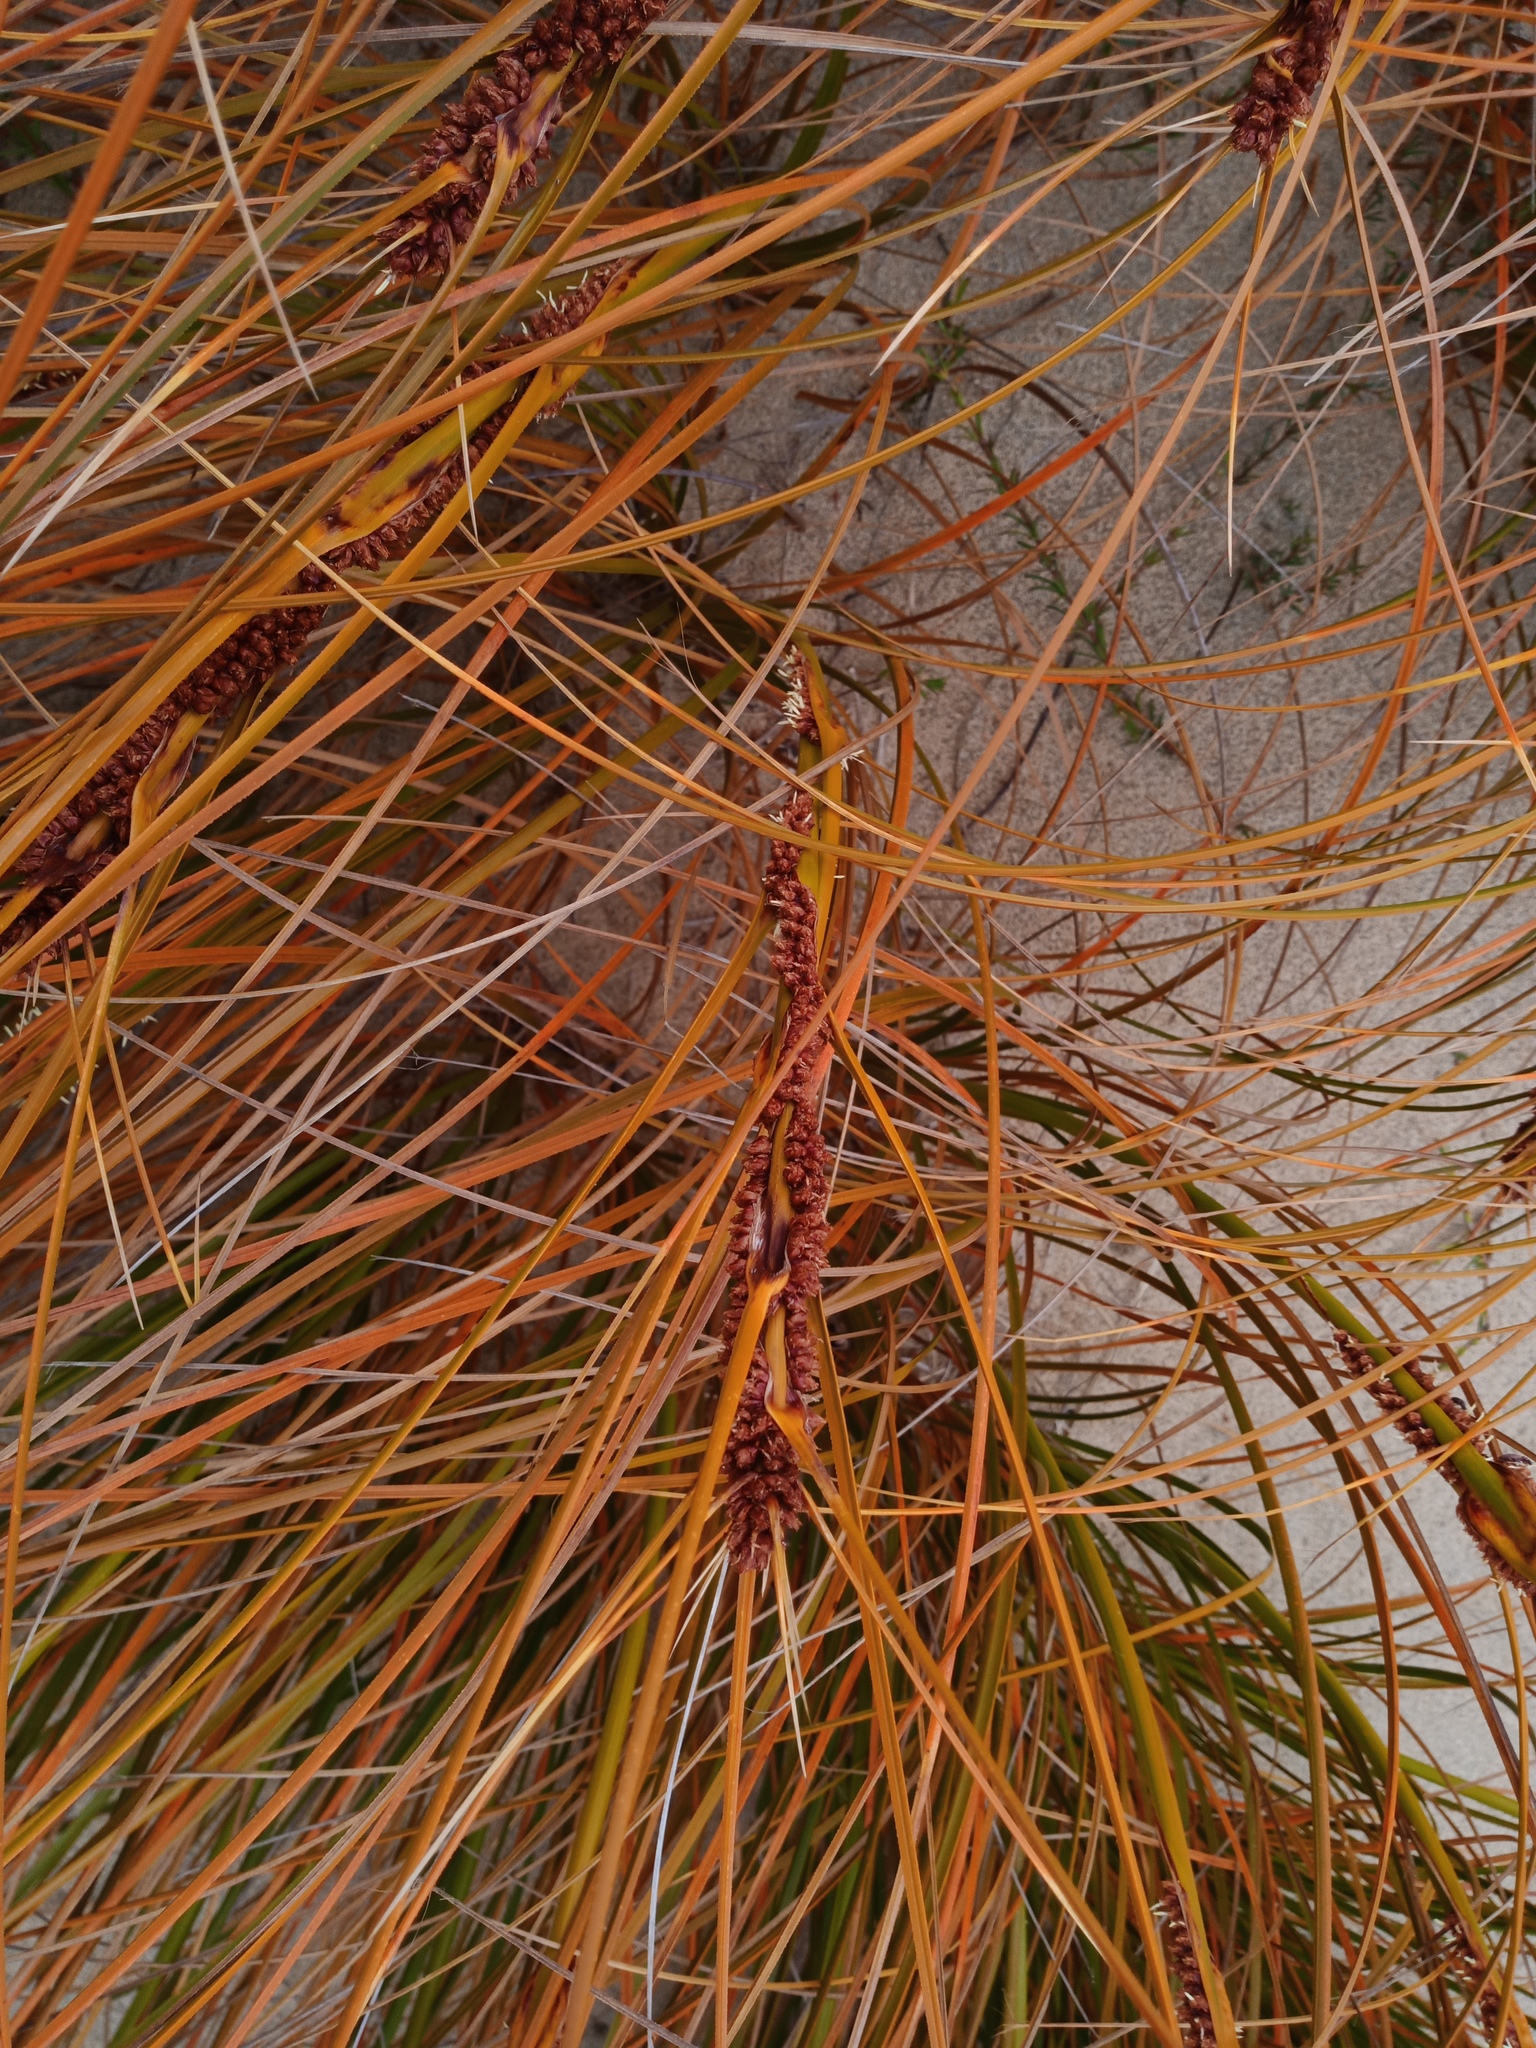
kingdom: Plantae
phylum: Tracheophyta
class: Liliopsida
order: Poales
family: Cyperaceae
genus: Ficinia
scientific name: Ficinia spiralis
